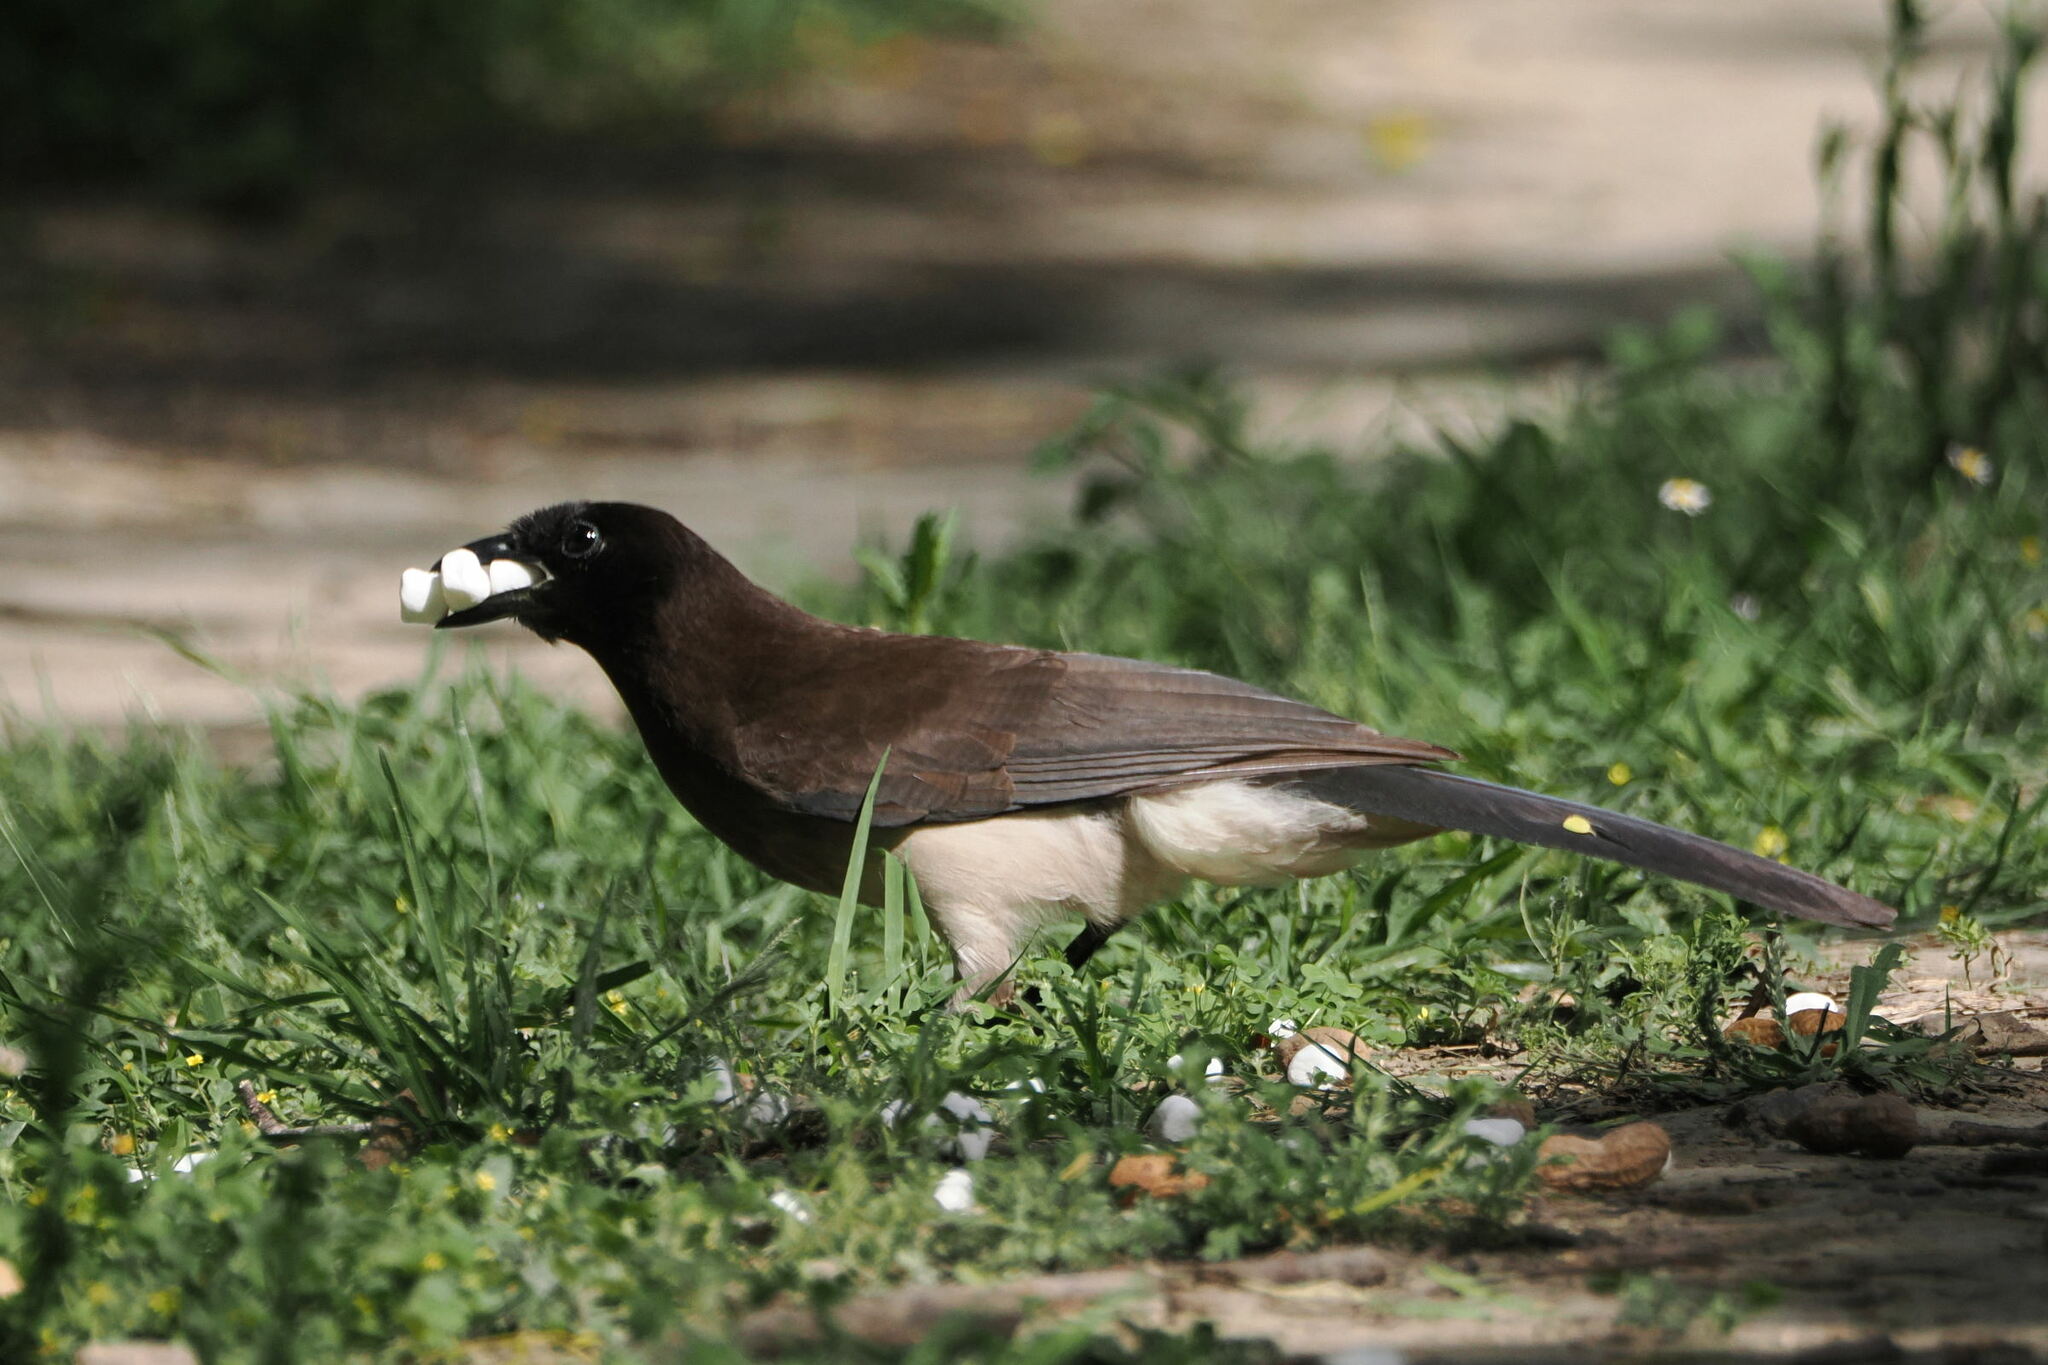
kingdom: Animalia
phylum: Chordata
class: Aves
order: Passeriformes
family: Corvidae
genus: Psilorhinus
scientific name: Psilorhinus morio
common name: Brown jay
